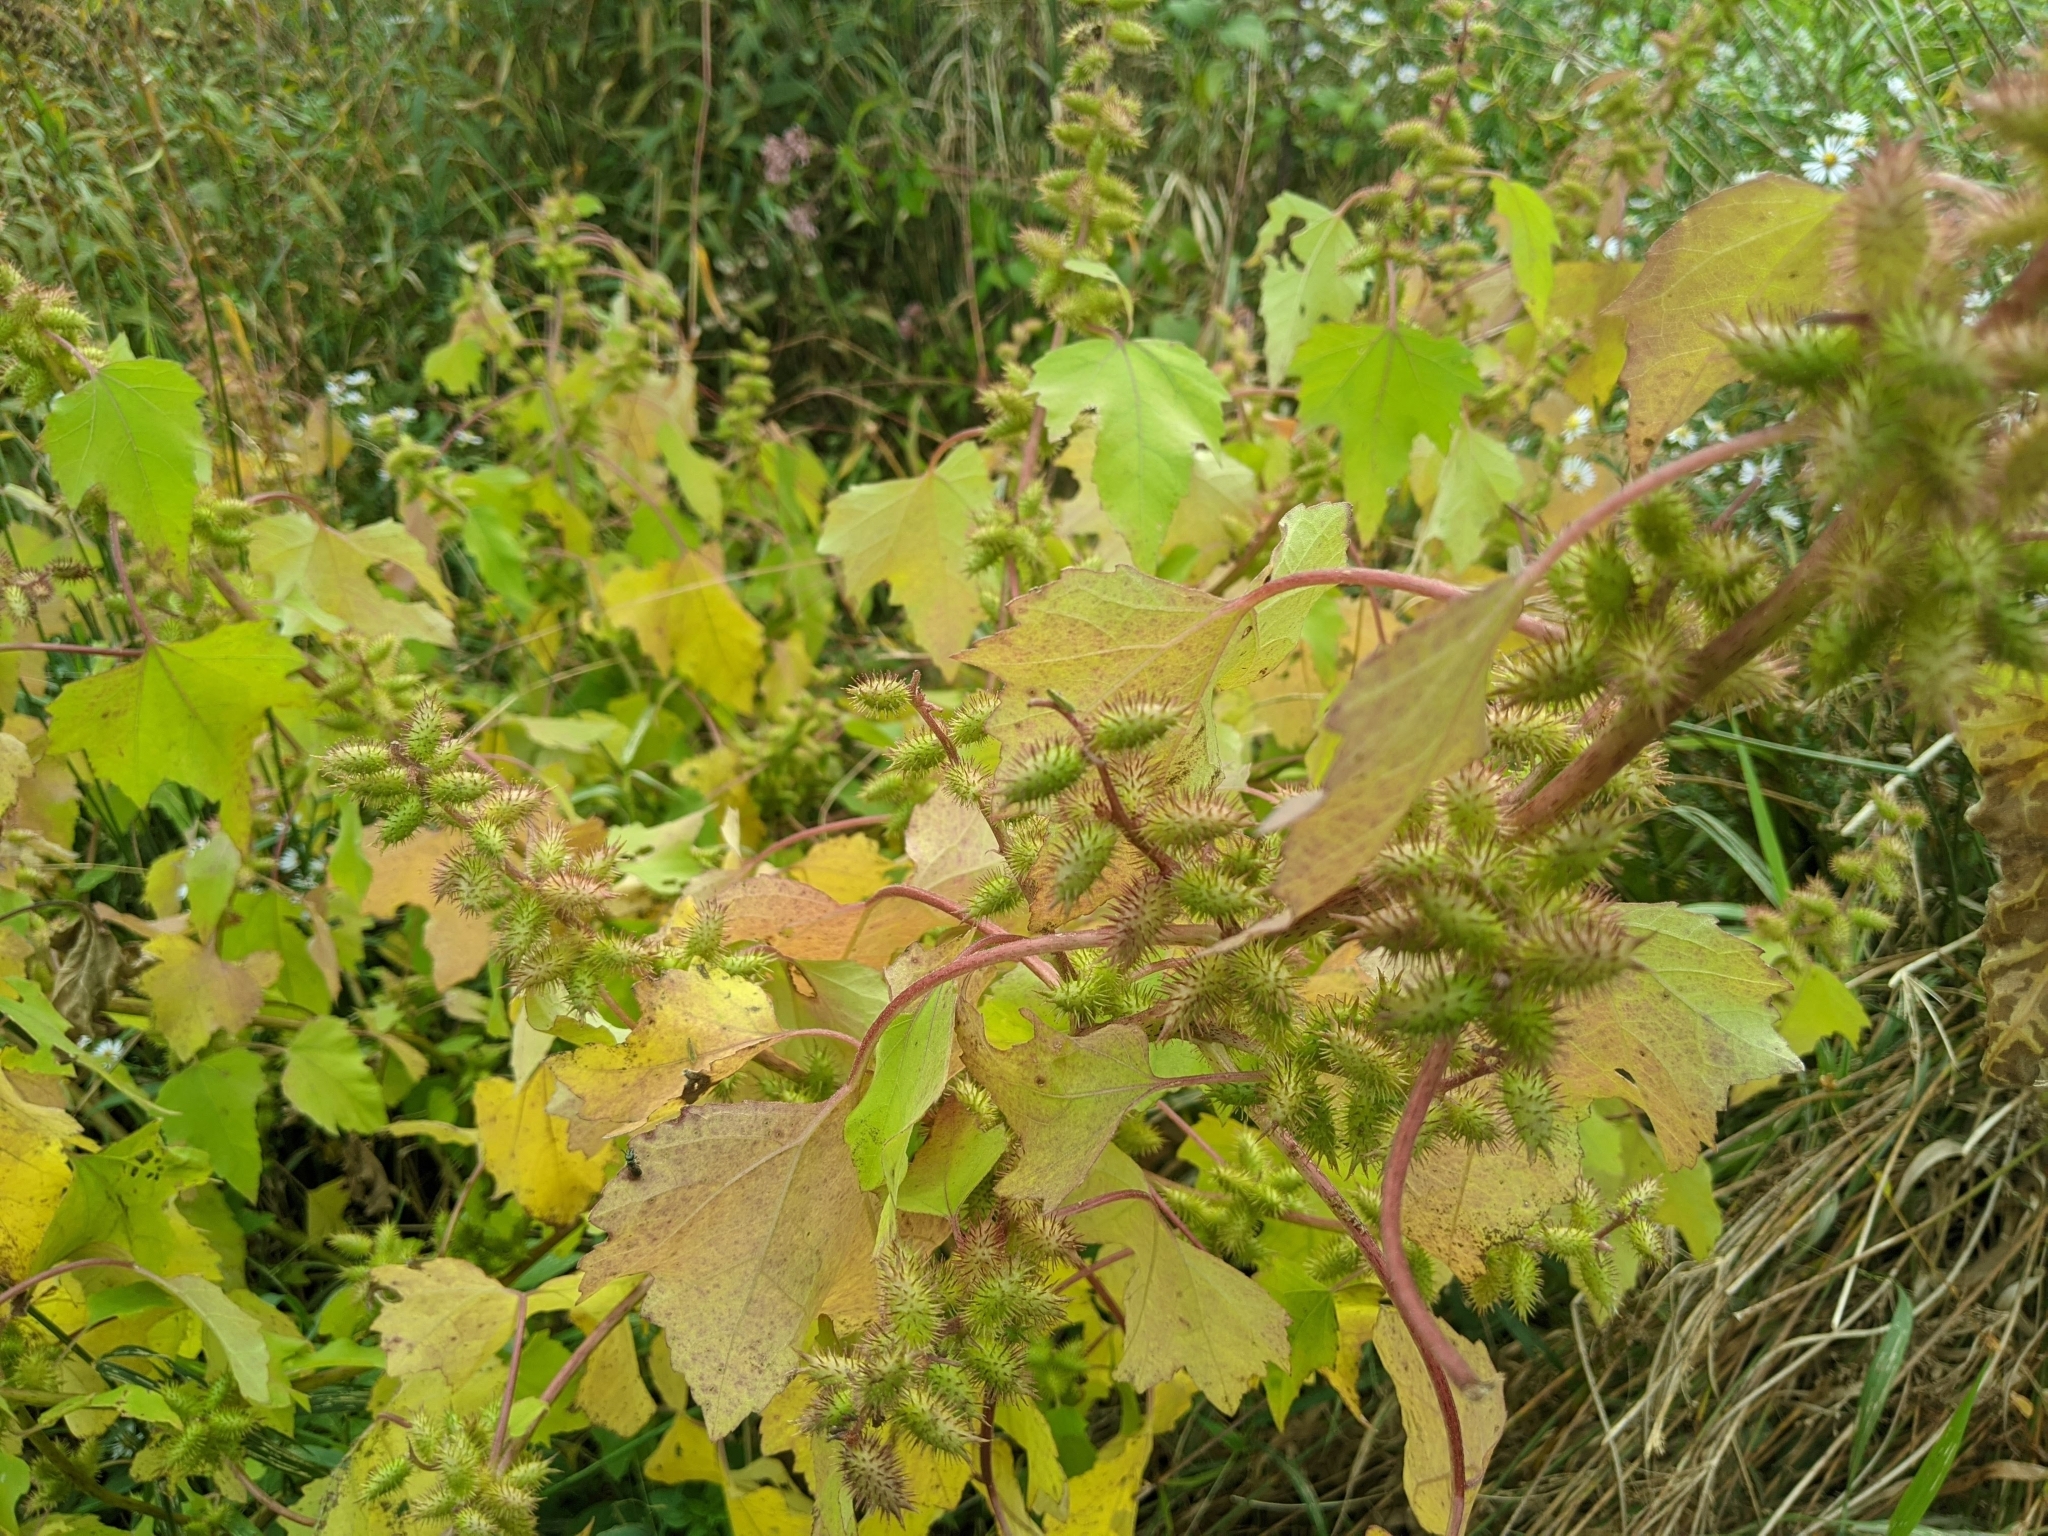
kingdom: Plantae
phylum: Tracheophyta
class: Magnoliopsida
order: Asterales
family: Asteraceae
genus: Xanthium
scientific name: Xanthium strumarium
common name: Rough cocklebur
